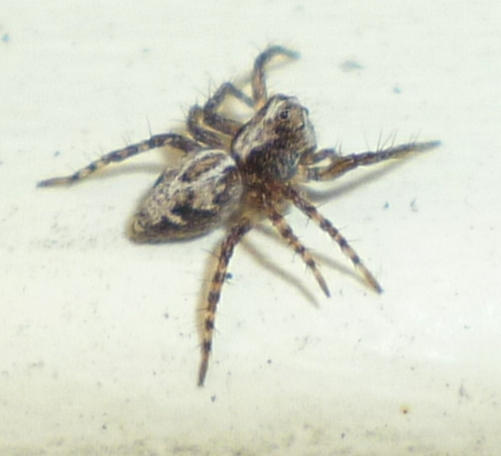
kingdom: Animalia
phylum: Arthropoda
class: Arachnida
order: Araneae
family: Oxyopidae
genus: Oxyopes
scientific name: Oxyopes scalaris
